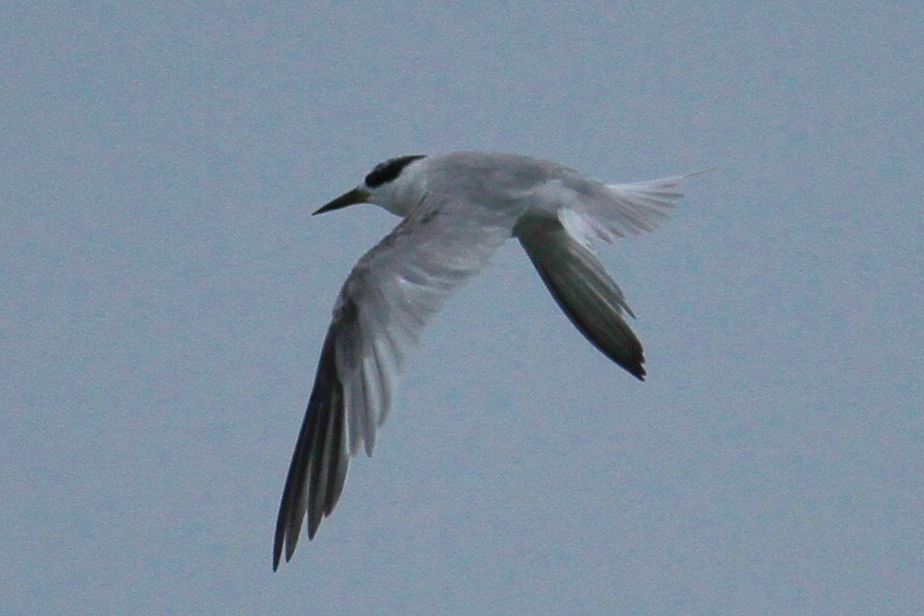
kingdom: Animalia
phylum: Chordata
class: Aves
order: Charadriiformes
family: Laridae
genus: Sternula
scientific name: Sternula antillarum
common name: Least tern
